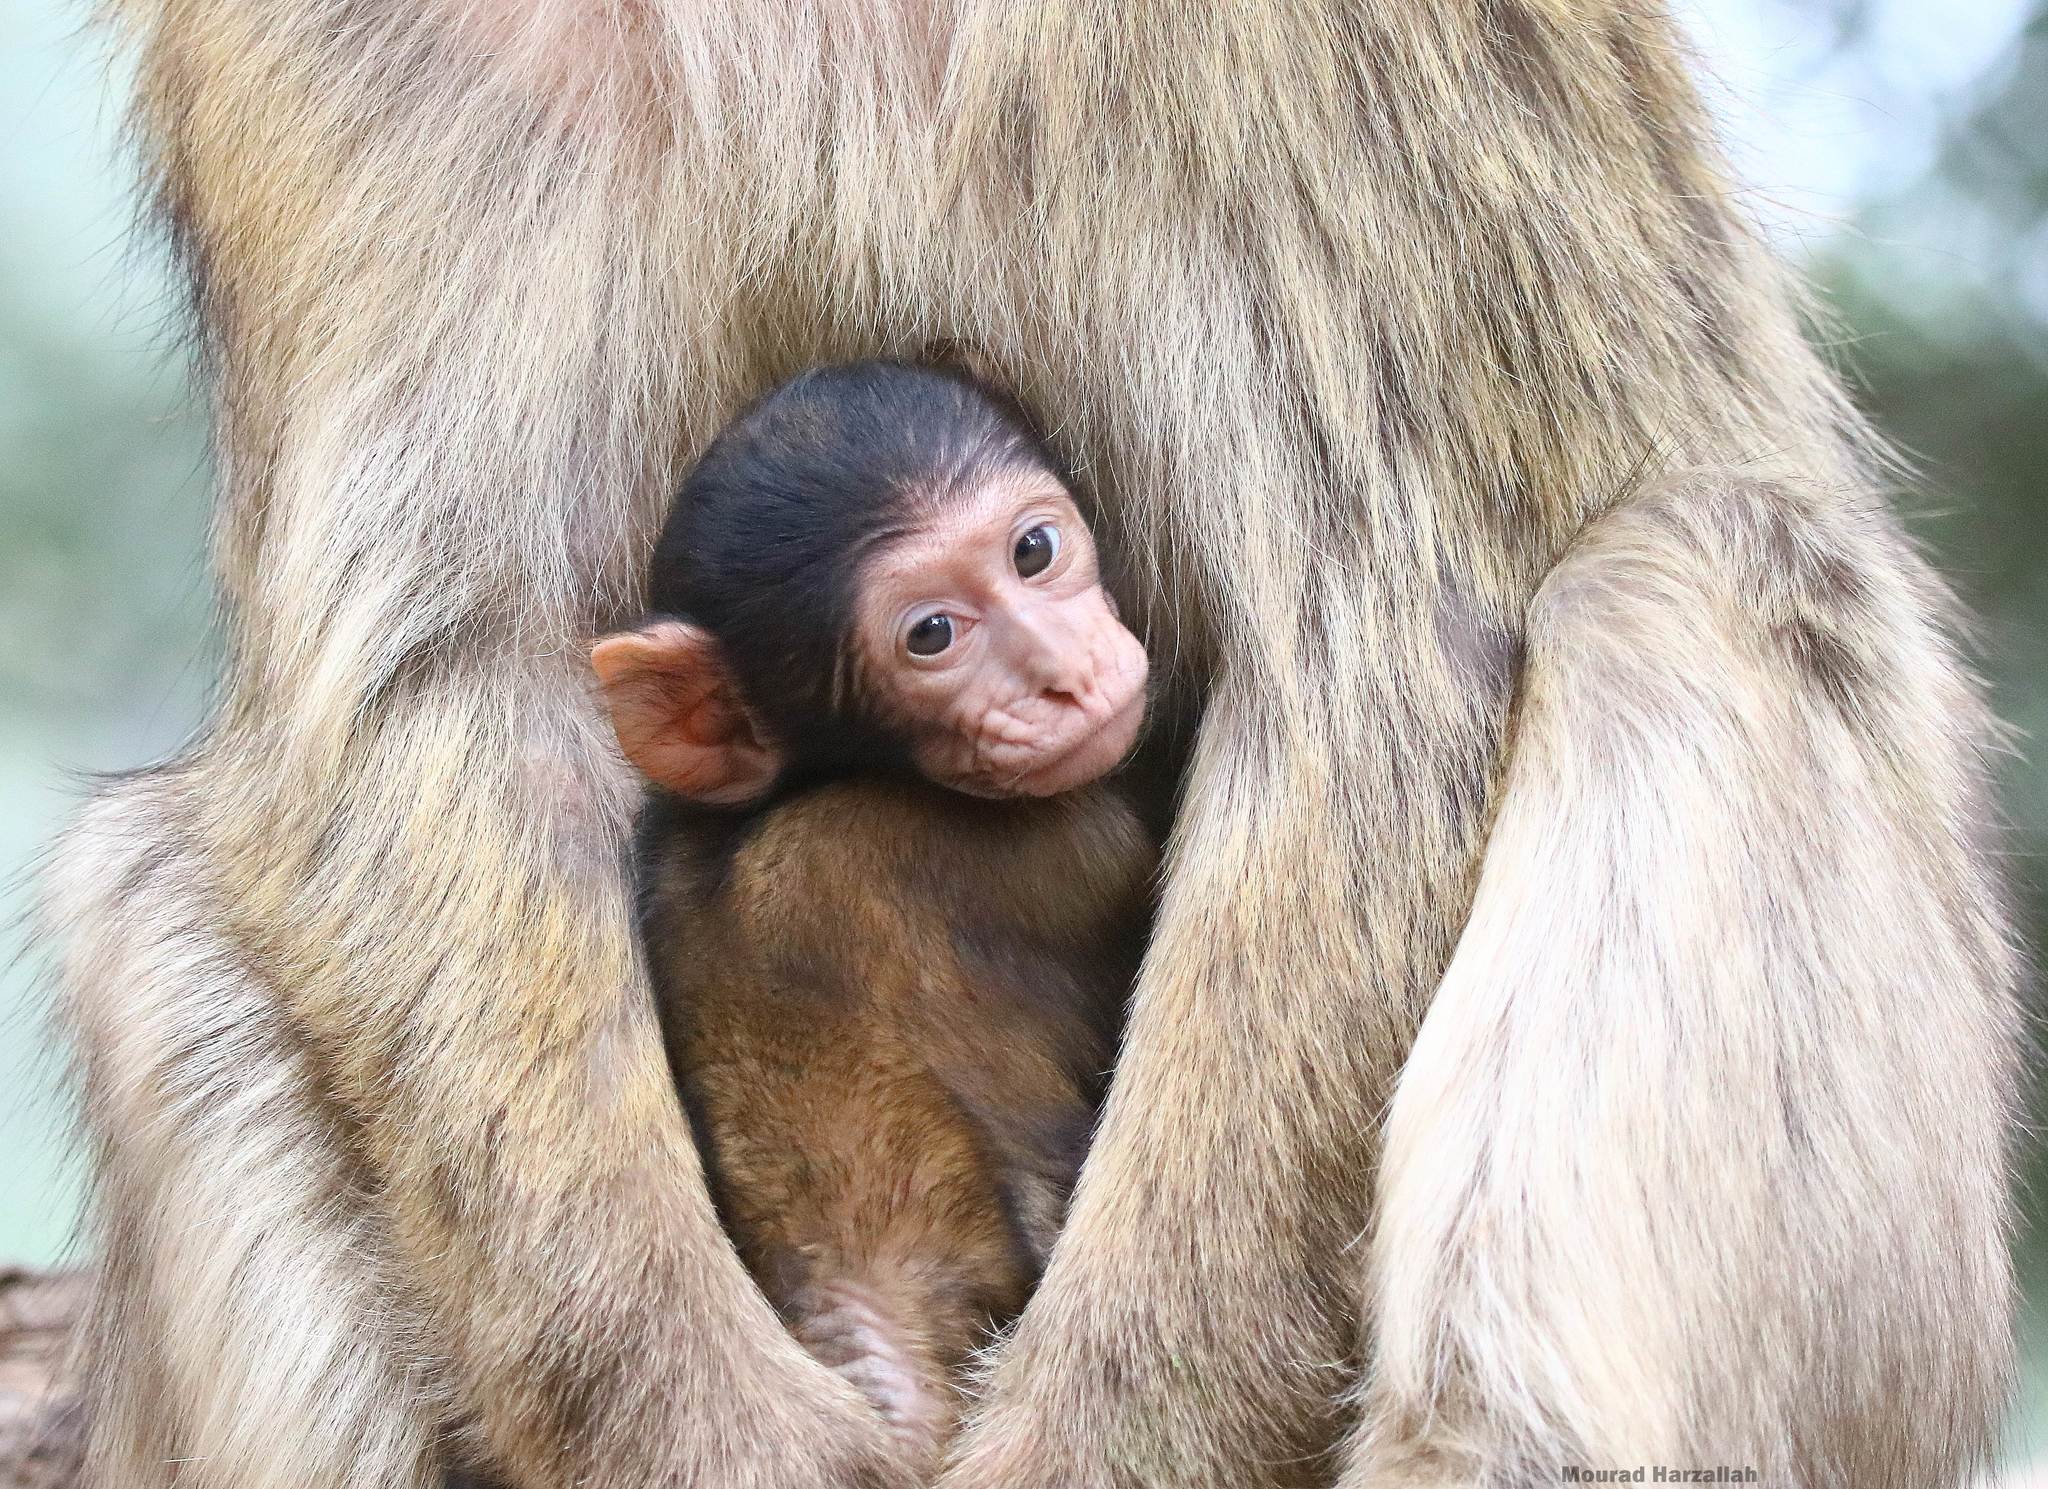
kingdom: Animalia
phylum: Chordata
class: Mammalia
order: Primates
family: Cercopithecidae
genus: Macaca
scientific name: Macaca sylvanus
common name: Barbary macaque
